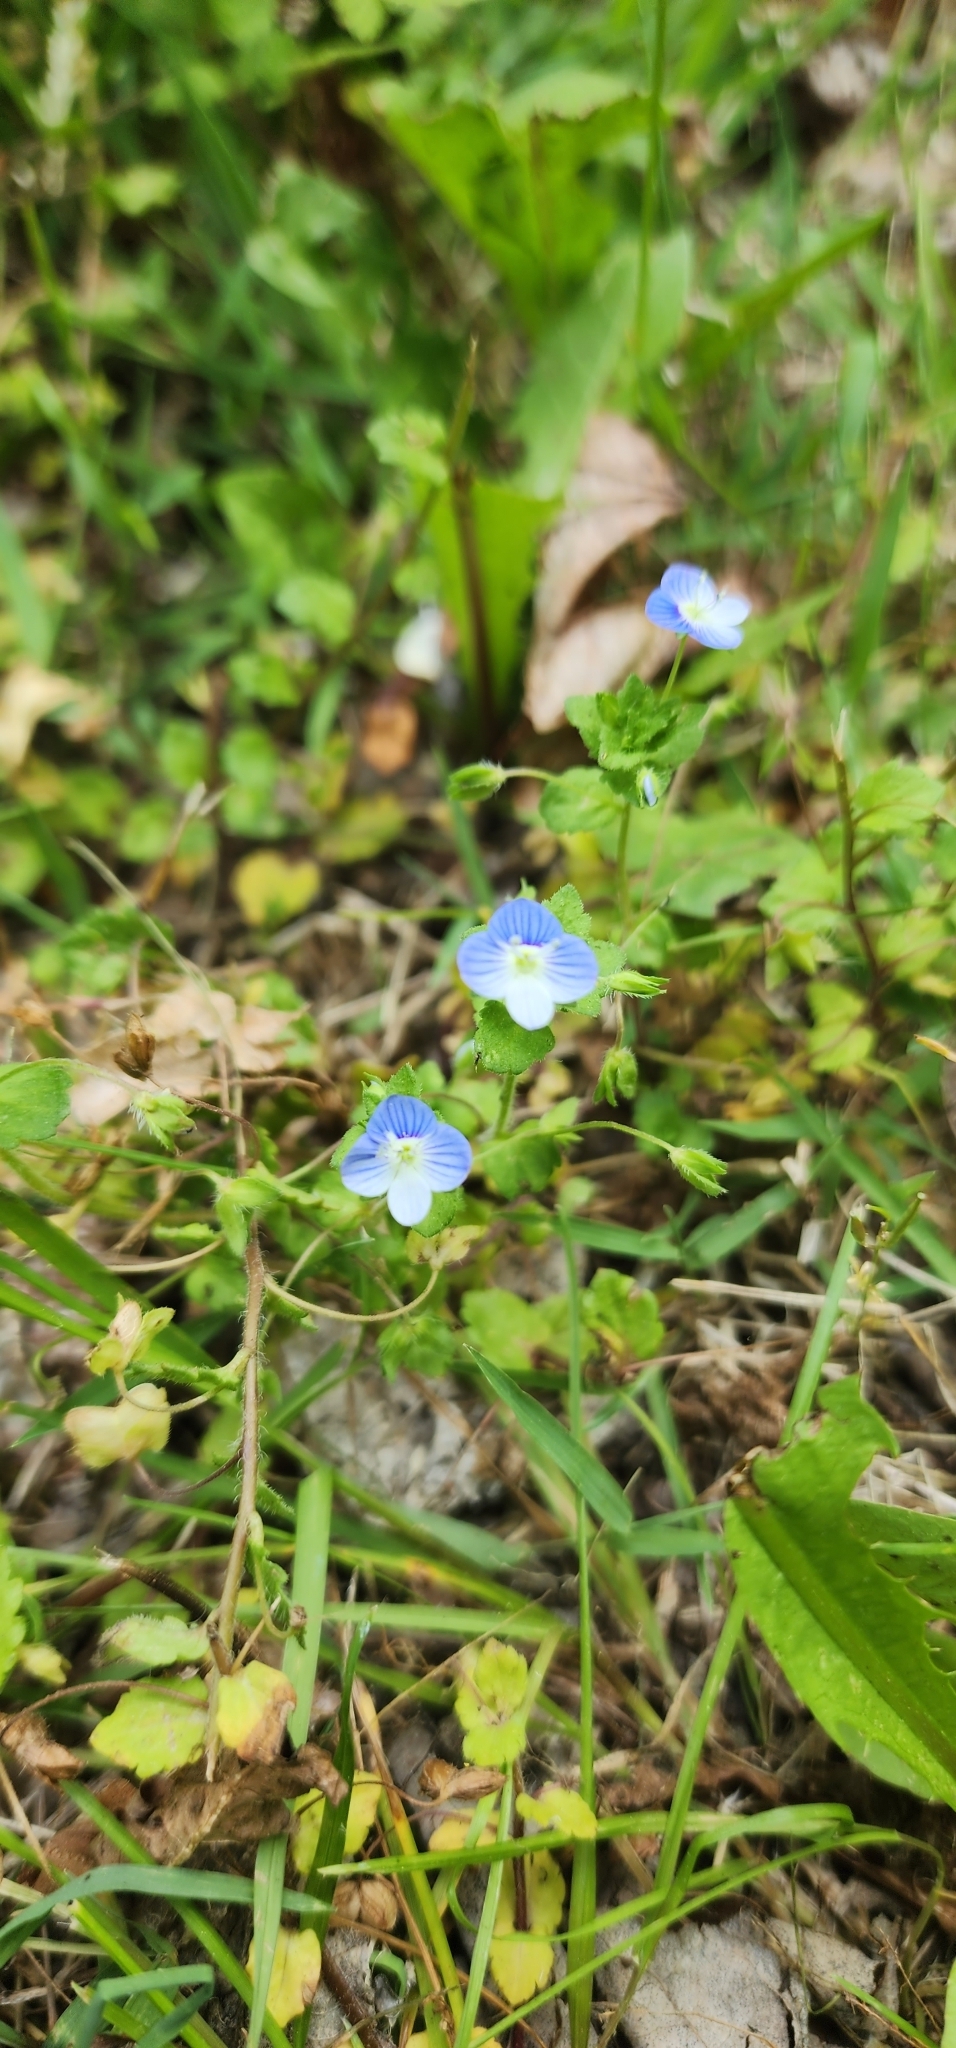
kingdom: Plantae
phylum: Tracheophyta
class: Magnoliopsida
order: Lamiales
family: Plantaginaceae
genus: Veronica
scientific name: Veronica persica
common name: Common field-speedwell
